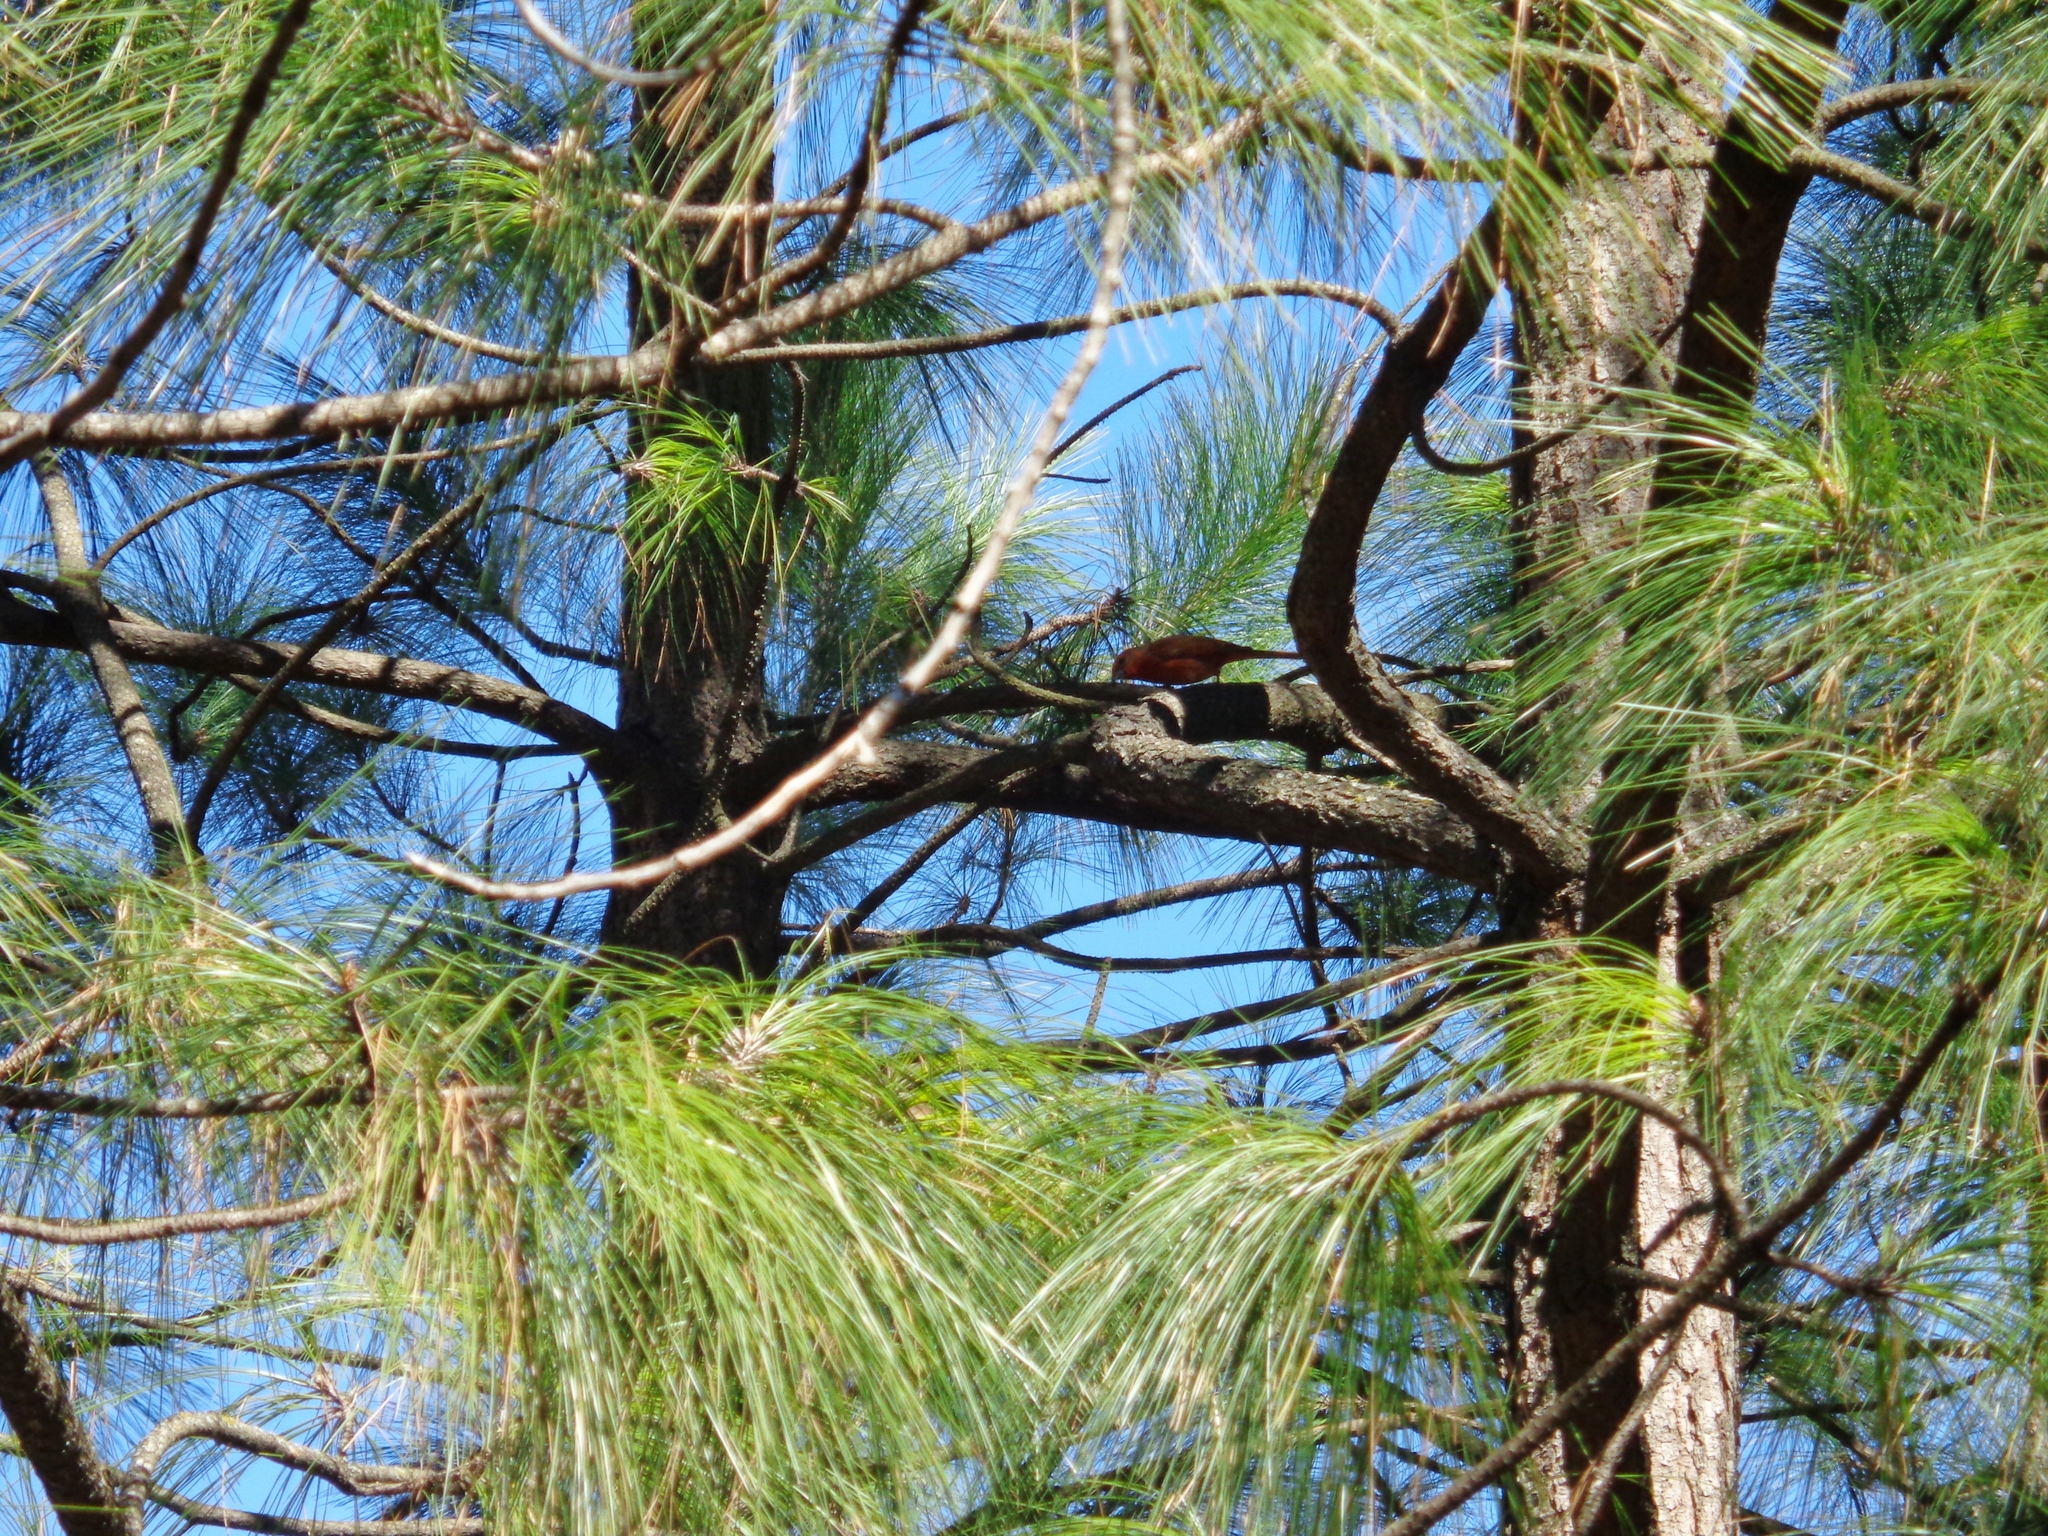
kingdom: Animalia
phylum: Chordata
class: Aves
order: Passeriformes
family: Cardinalidae
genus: Piranga
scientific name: Piranga flava
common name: Red tanager
